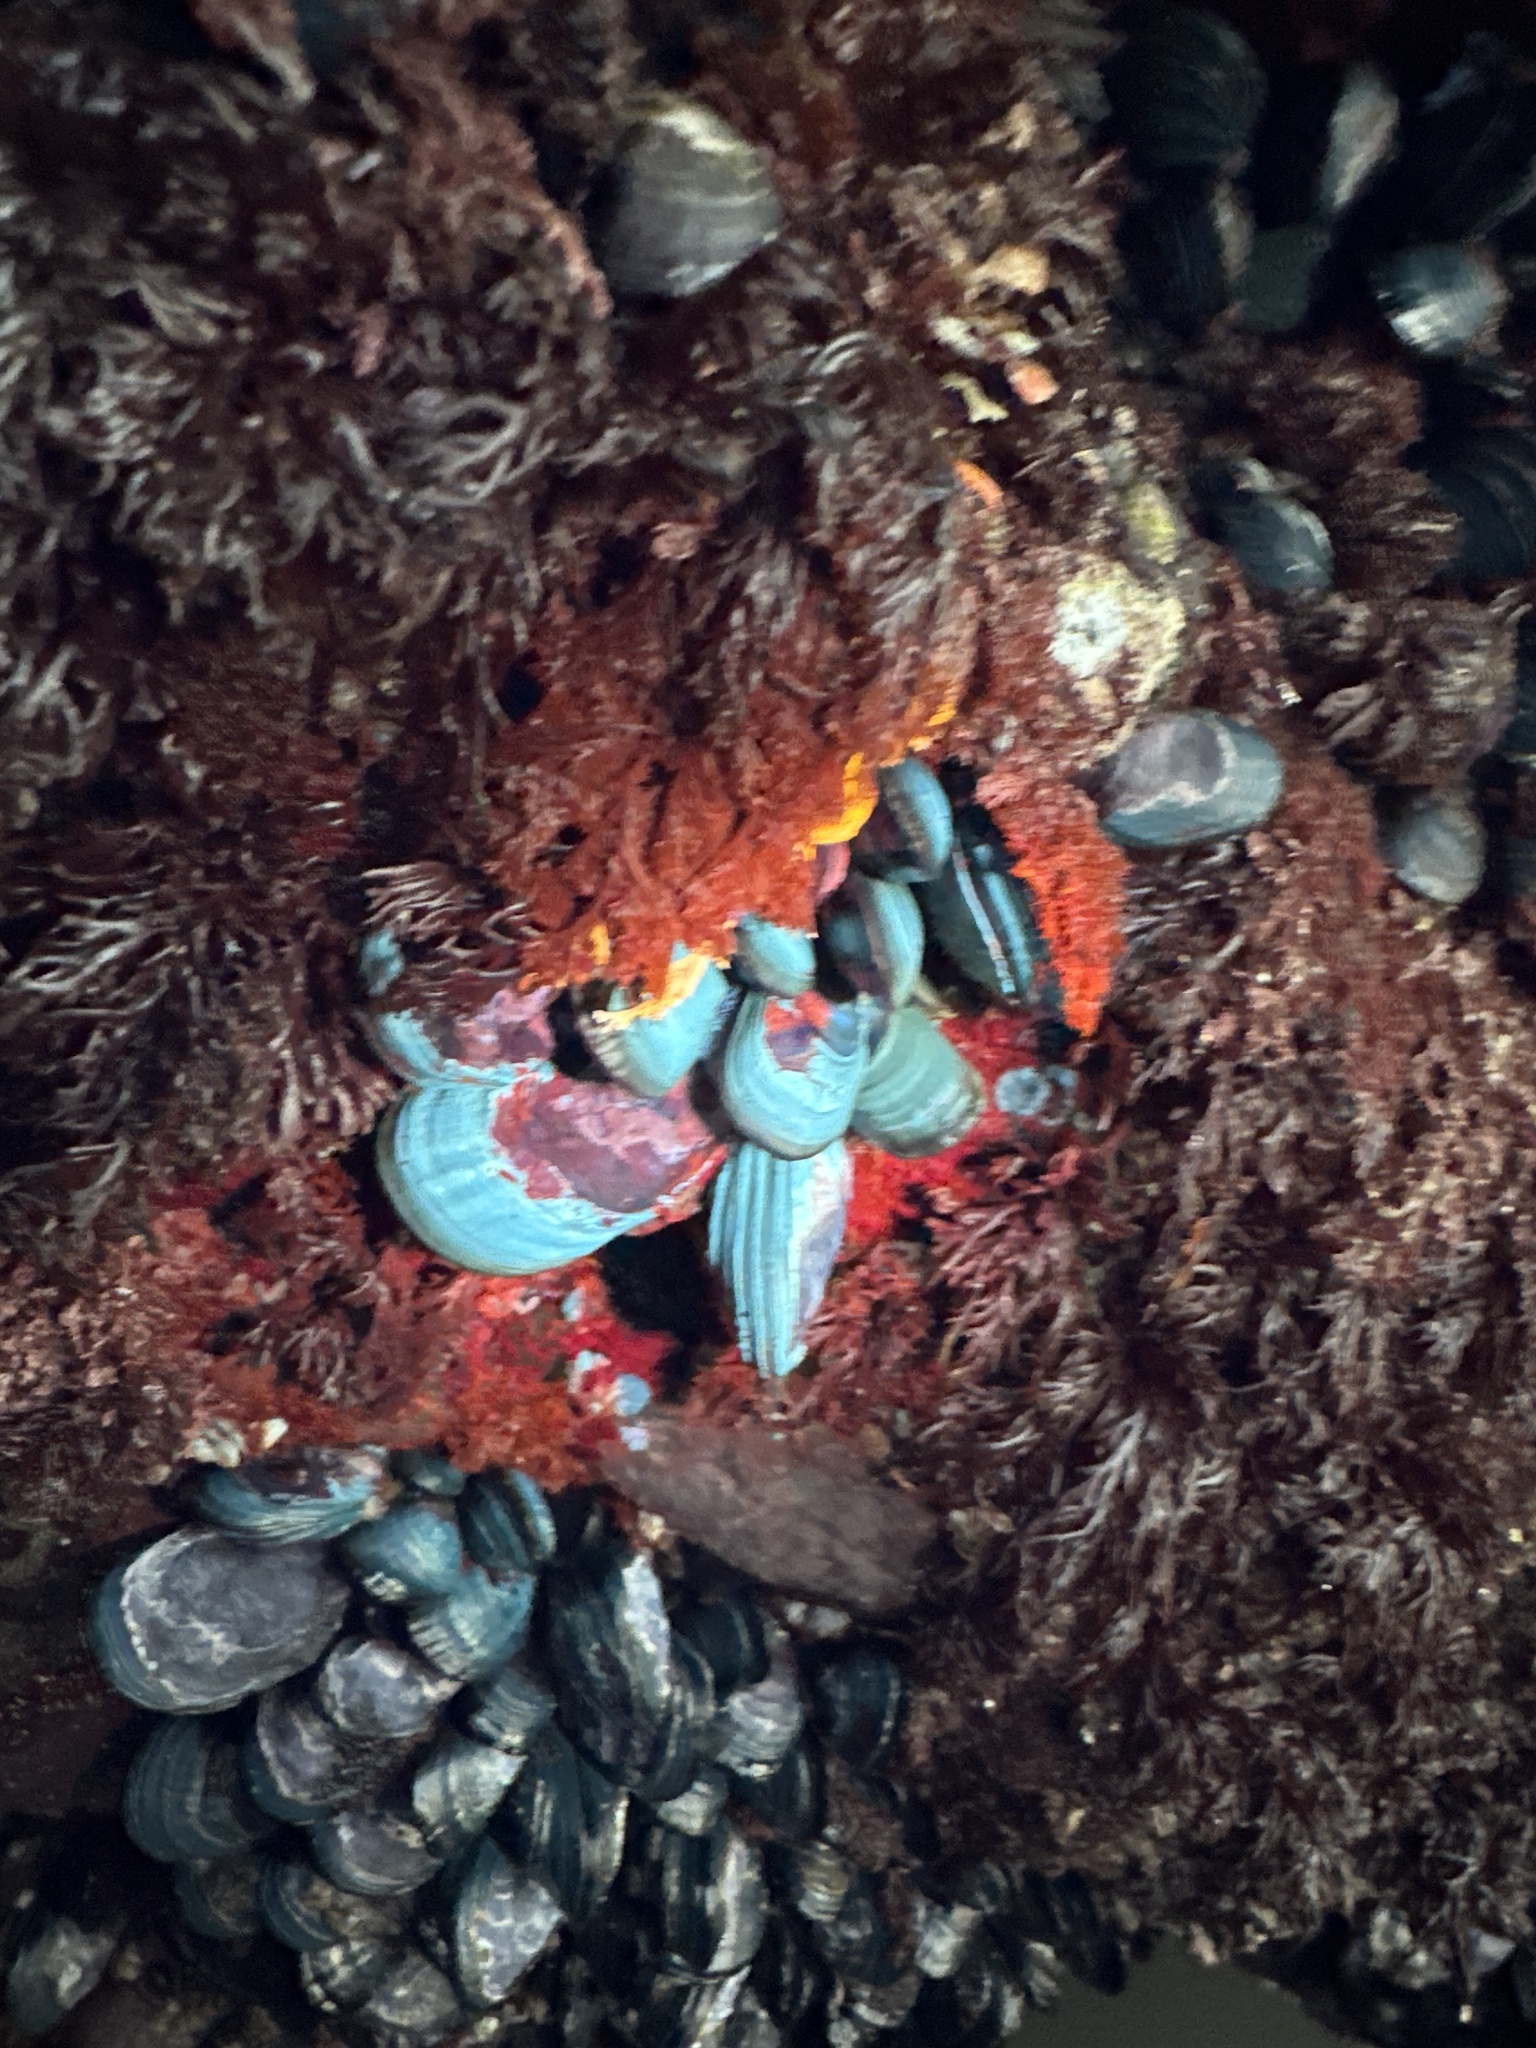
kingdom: Animalia
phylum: Mollusca
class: Bivalvia
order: Mytilida
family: Mytilidae
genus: Mytilus
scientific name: Mytilus californianus
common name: California mussel
